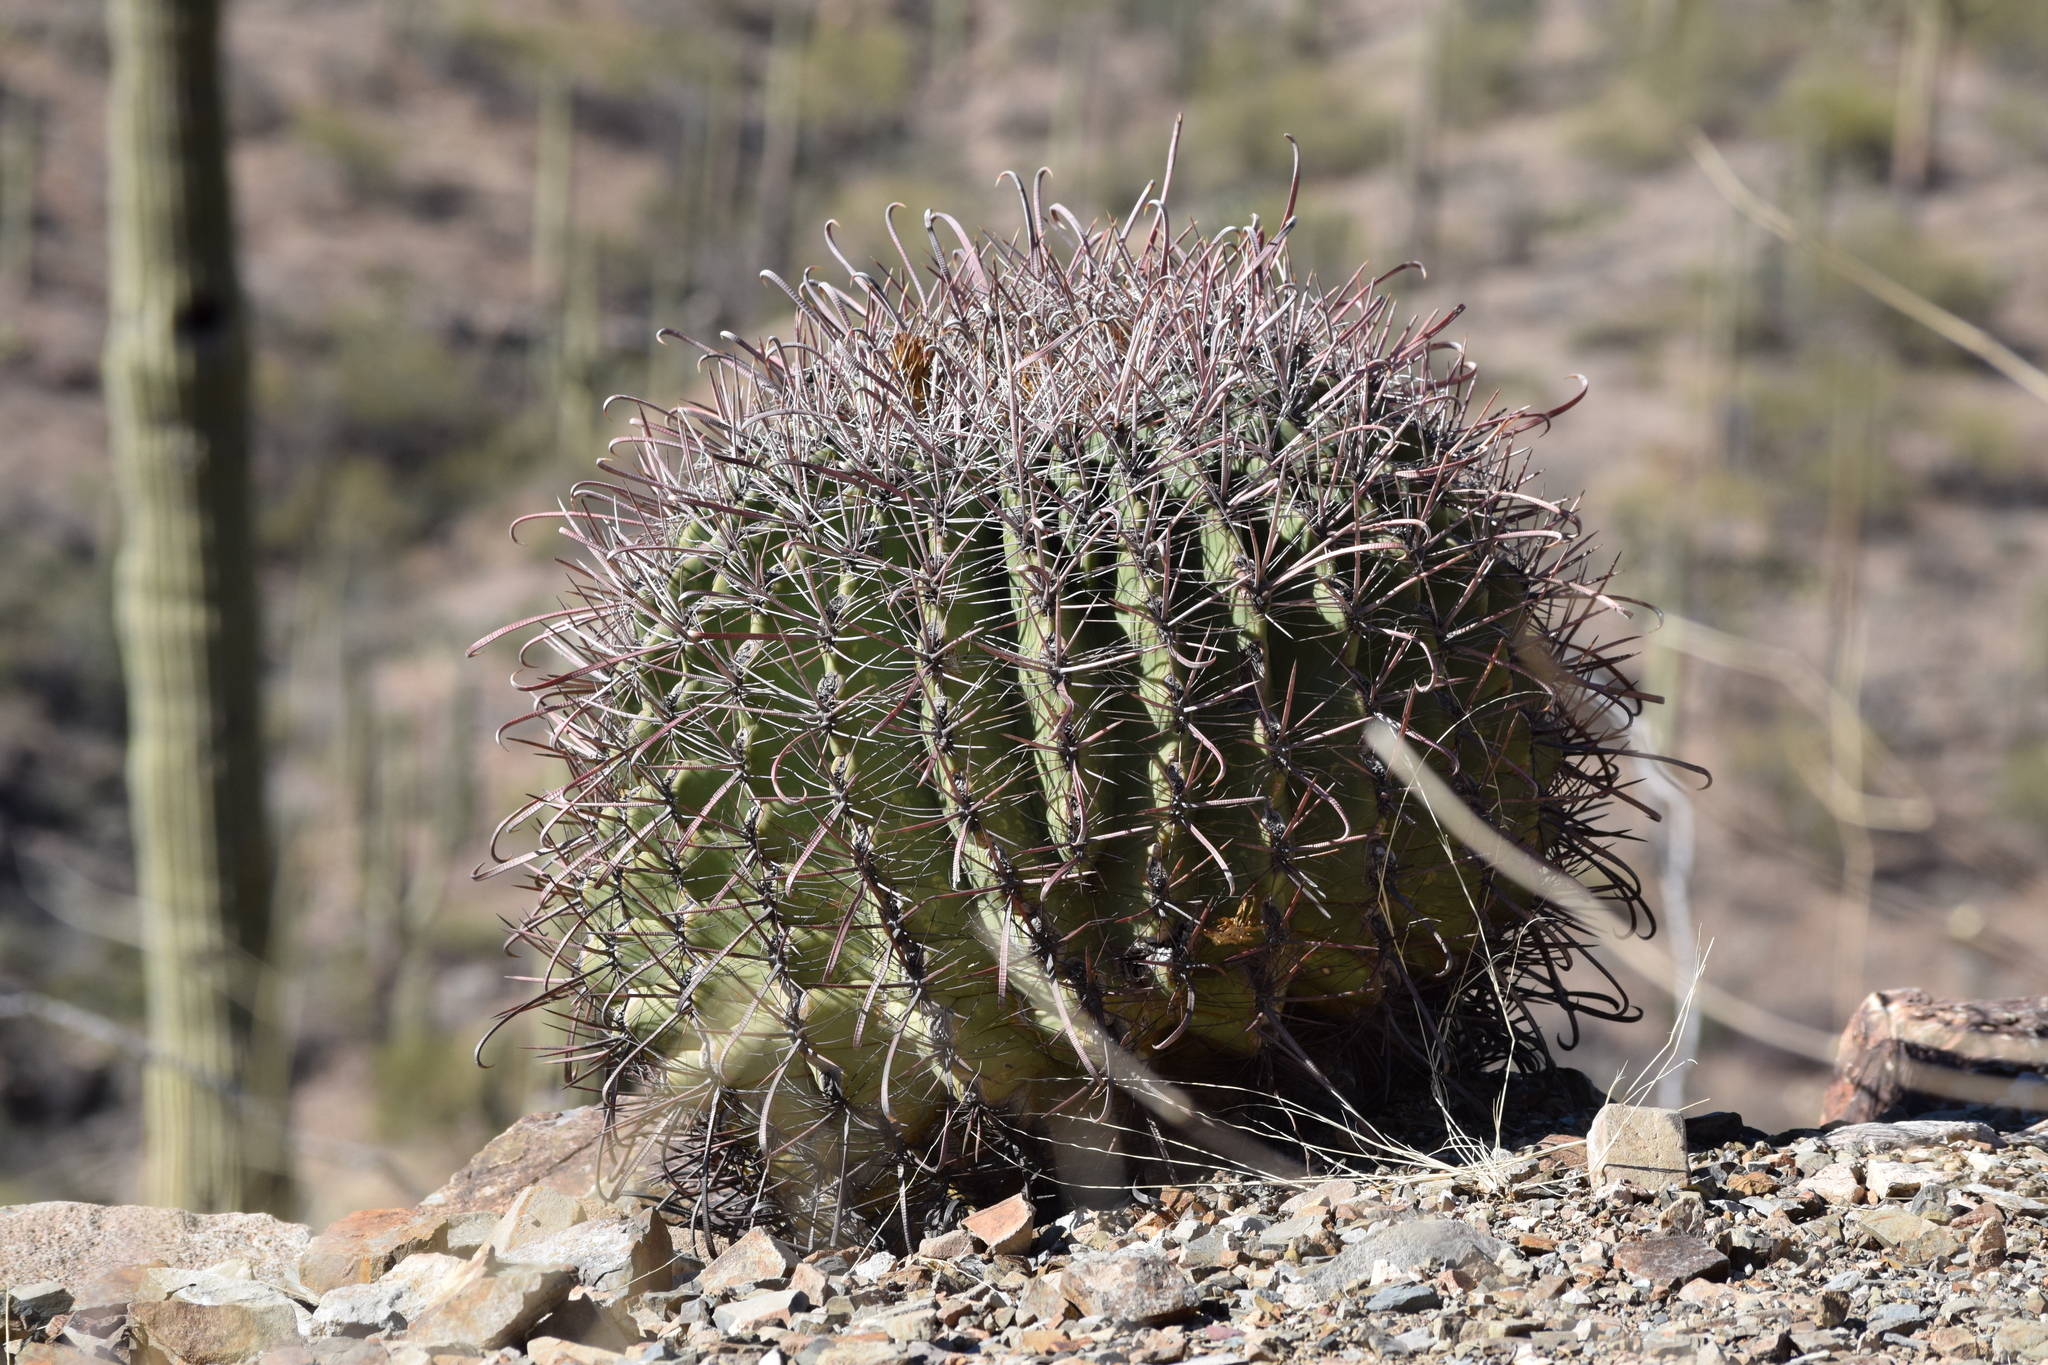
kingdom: Plantae
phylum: Tracheophyta
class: Magnoliopsida
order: Caryophyllales
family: Cactaceae
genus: Ferocactus
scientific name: Ferocactus wislizeni
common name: Candy barrel cactus
